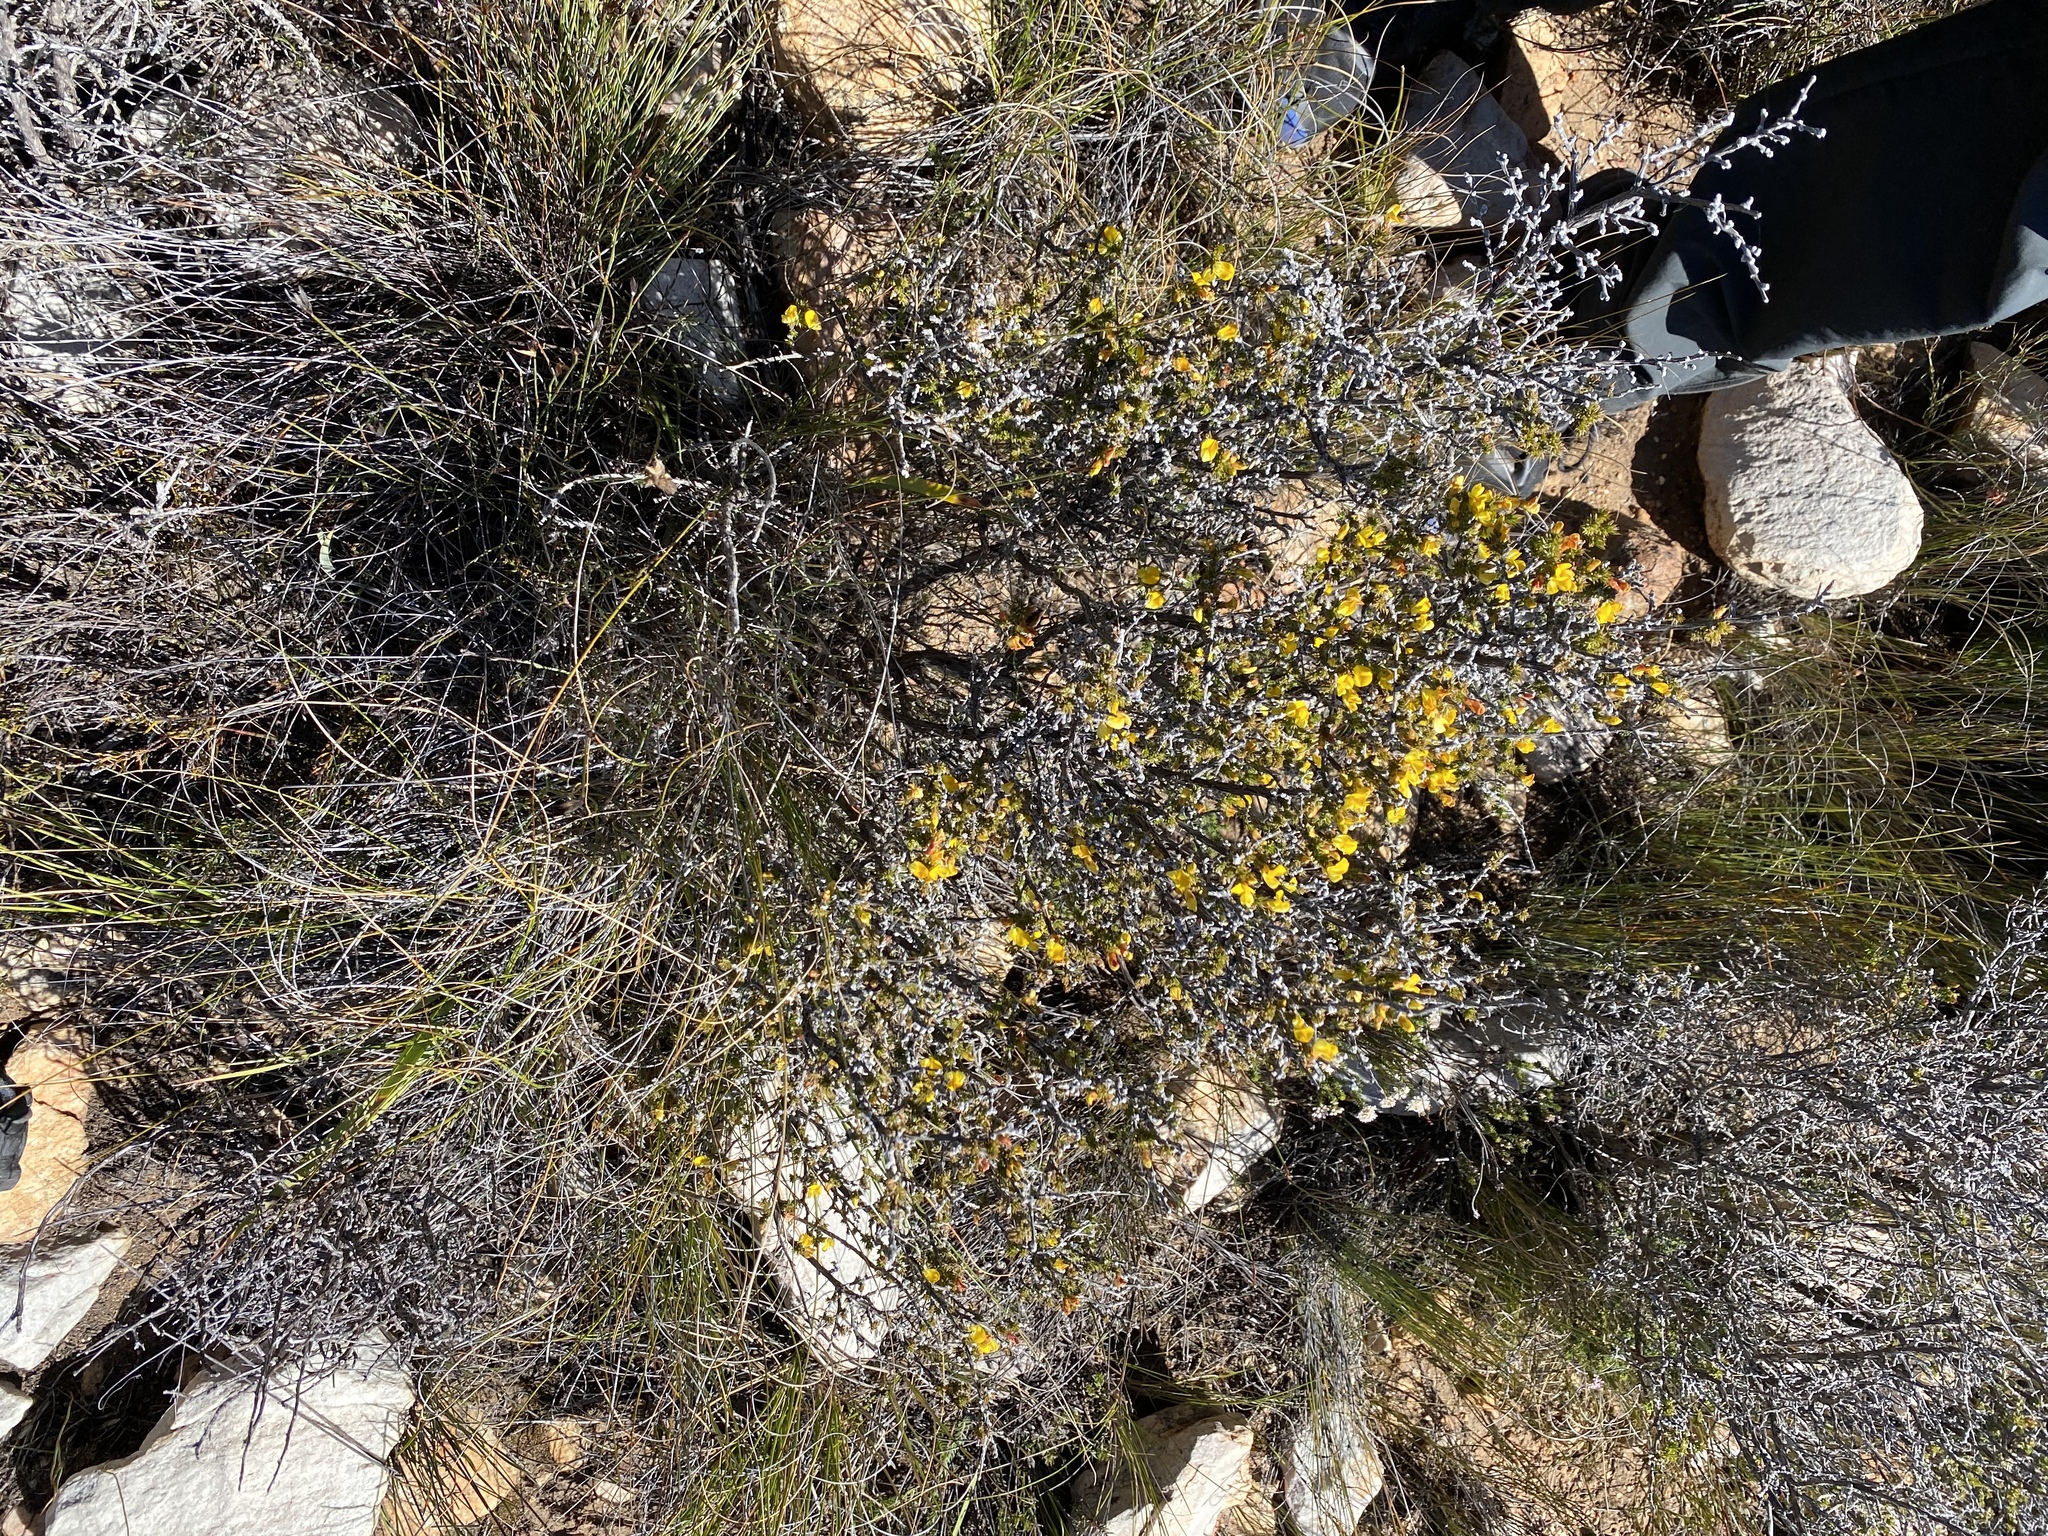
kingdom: Plantae
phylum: Tracheophyta
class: Magnoliopsida
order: Fabales
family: Fabaceae
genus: Aspalathus
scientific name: Aspalathus aciphylla
